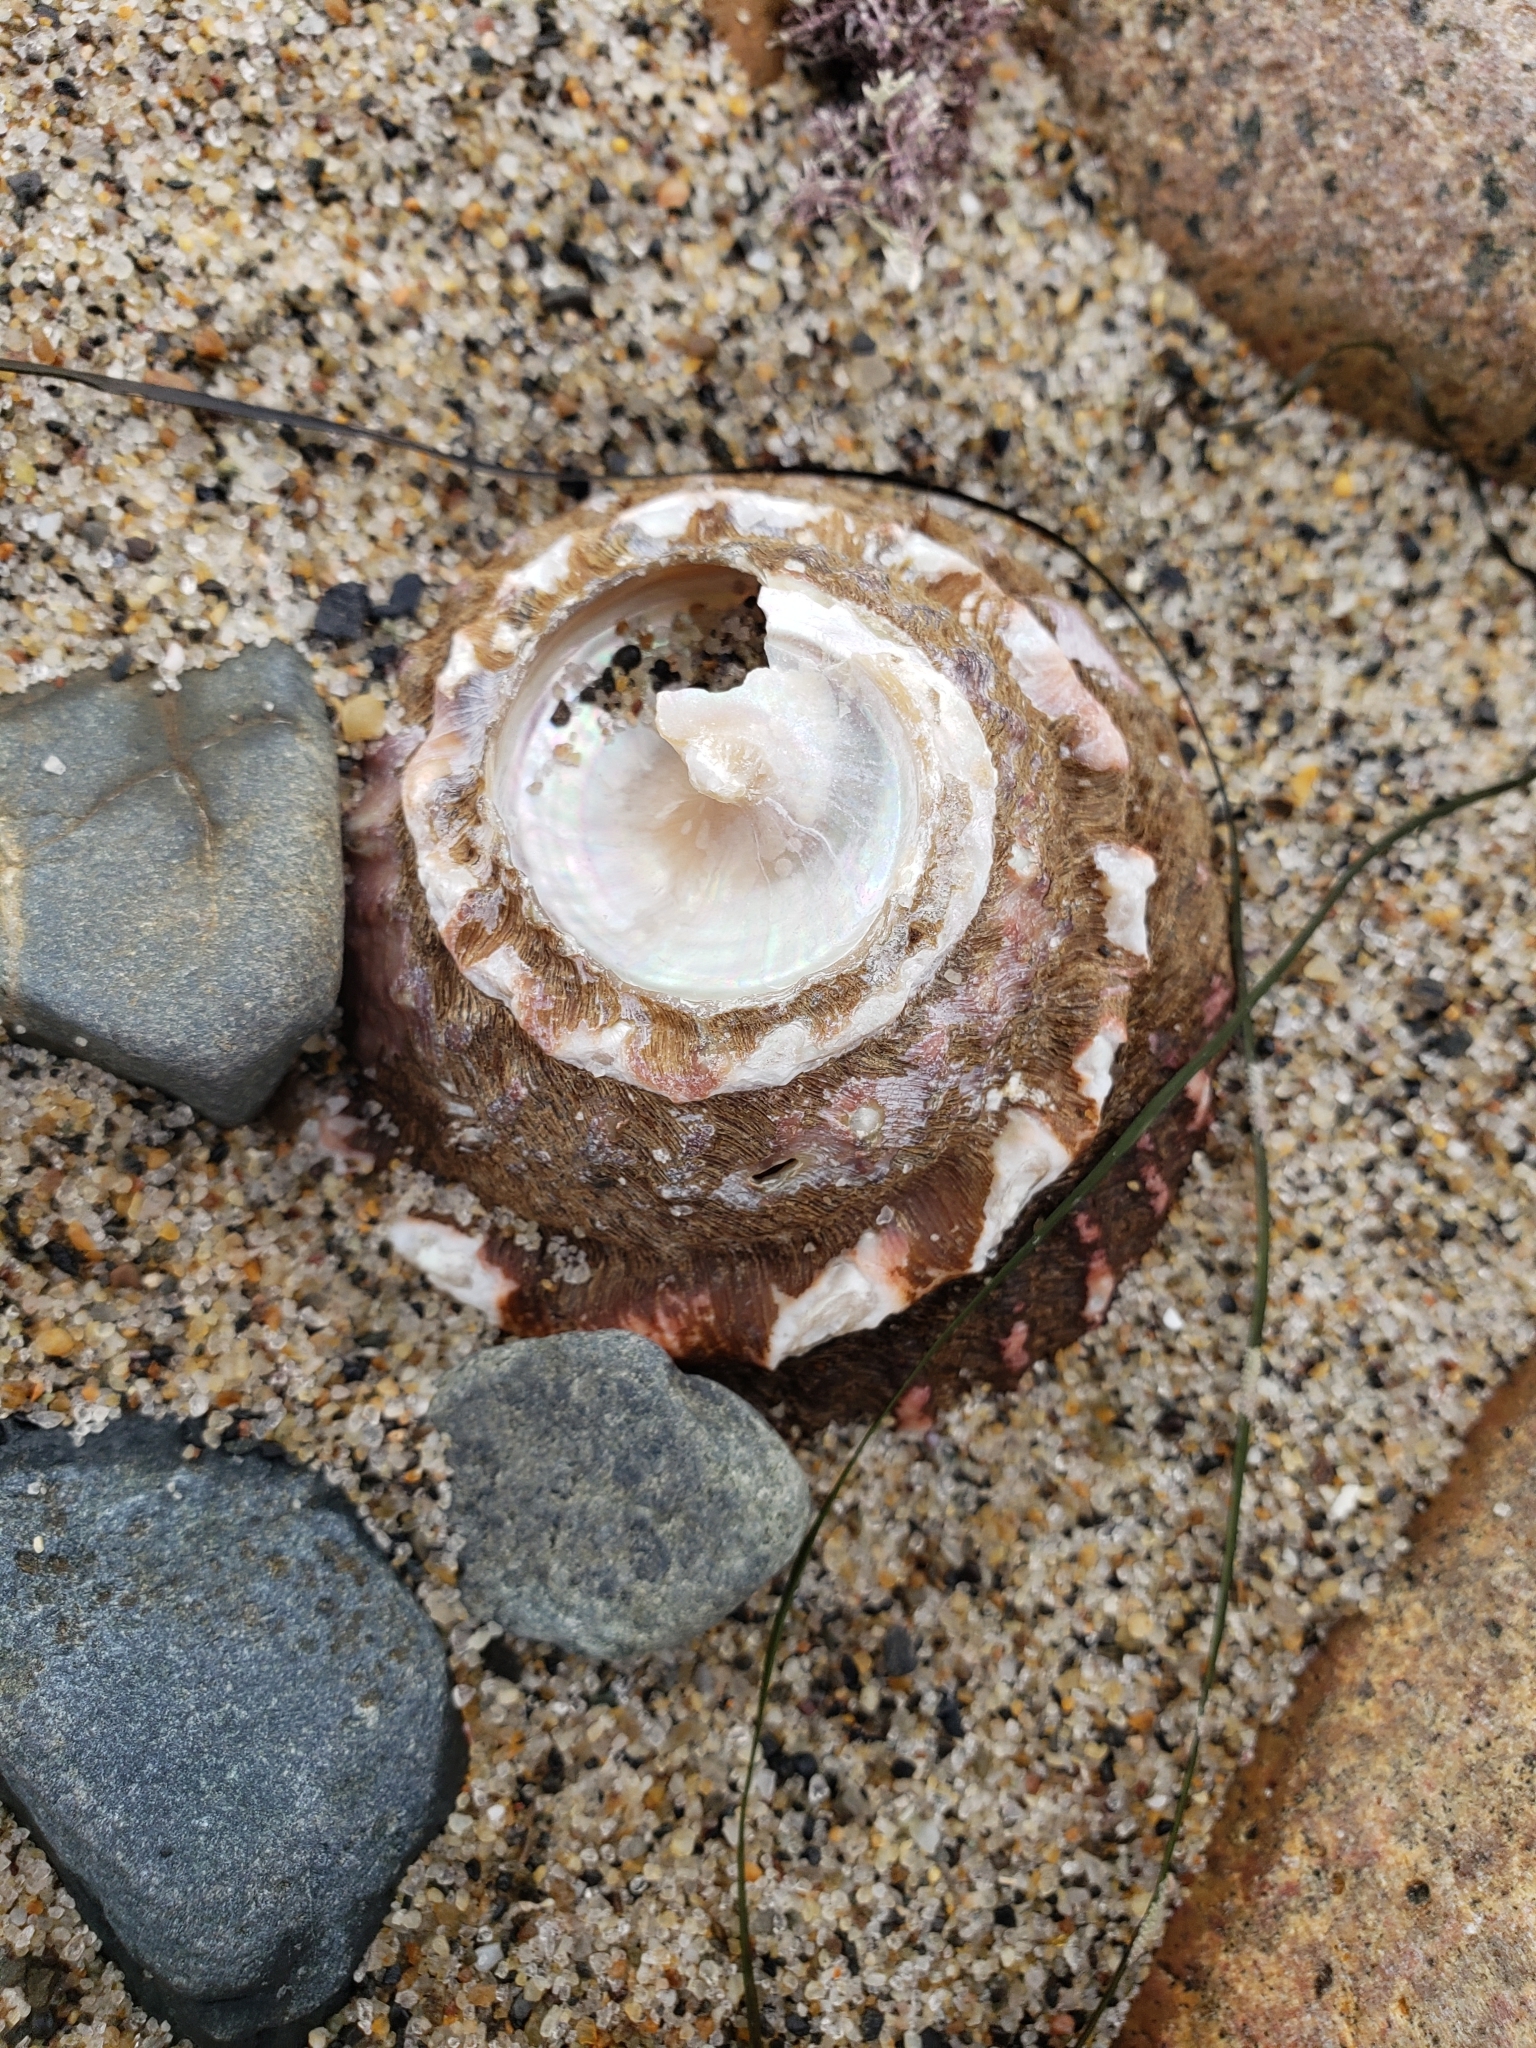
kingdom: Animalia
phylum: Mollusca
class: Gastropoda
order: Trochida
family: Turbinidae
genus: Megastraea
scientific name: Megastraea undosa
